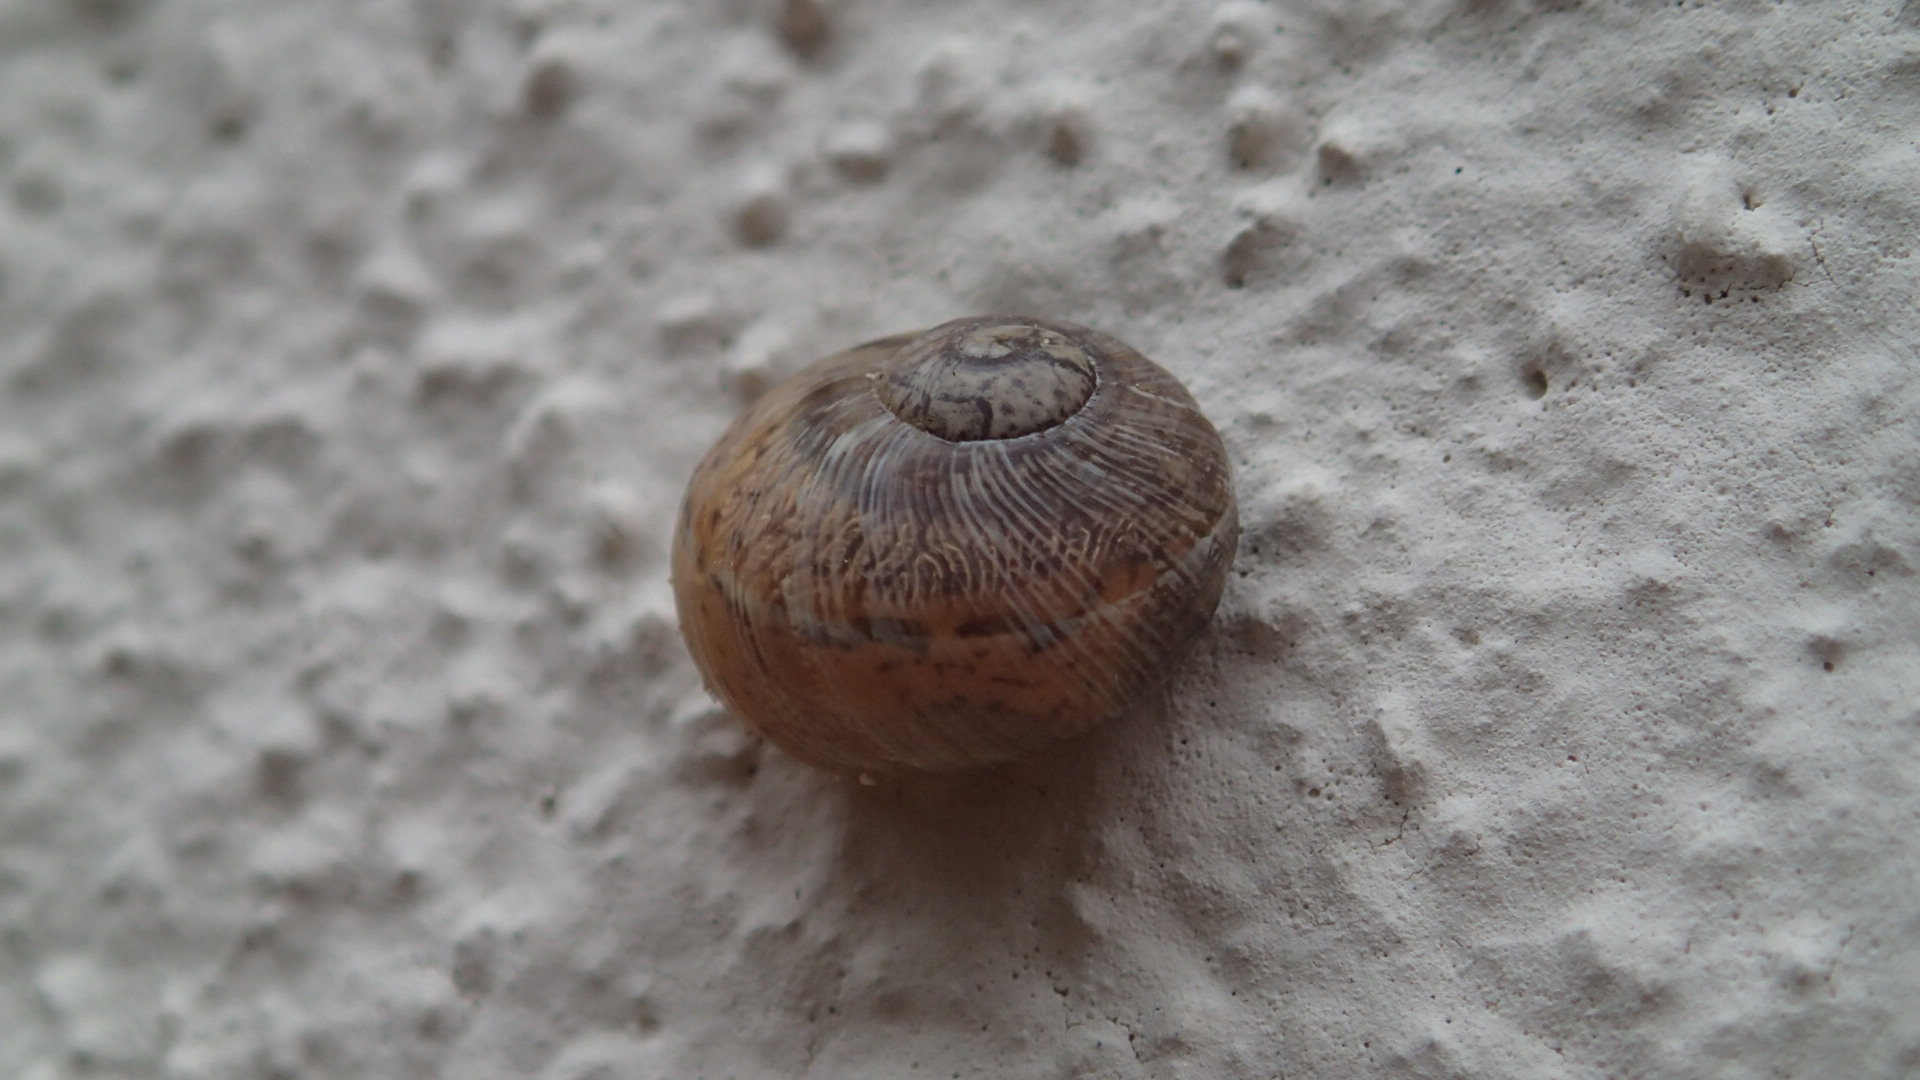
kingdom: Animalia
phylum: Mollusca
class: Gastropoda
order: Stylommatophora
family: Helicidae
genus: Cornu
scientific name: Cornu aspersum
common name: Brown garden snail
